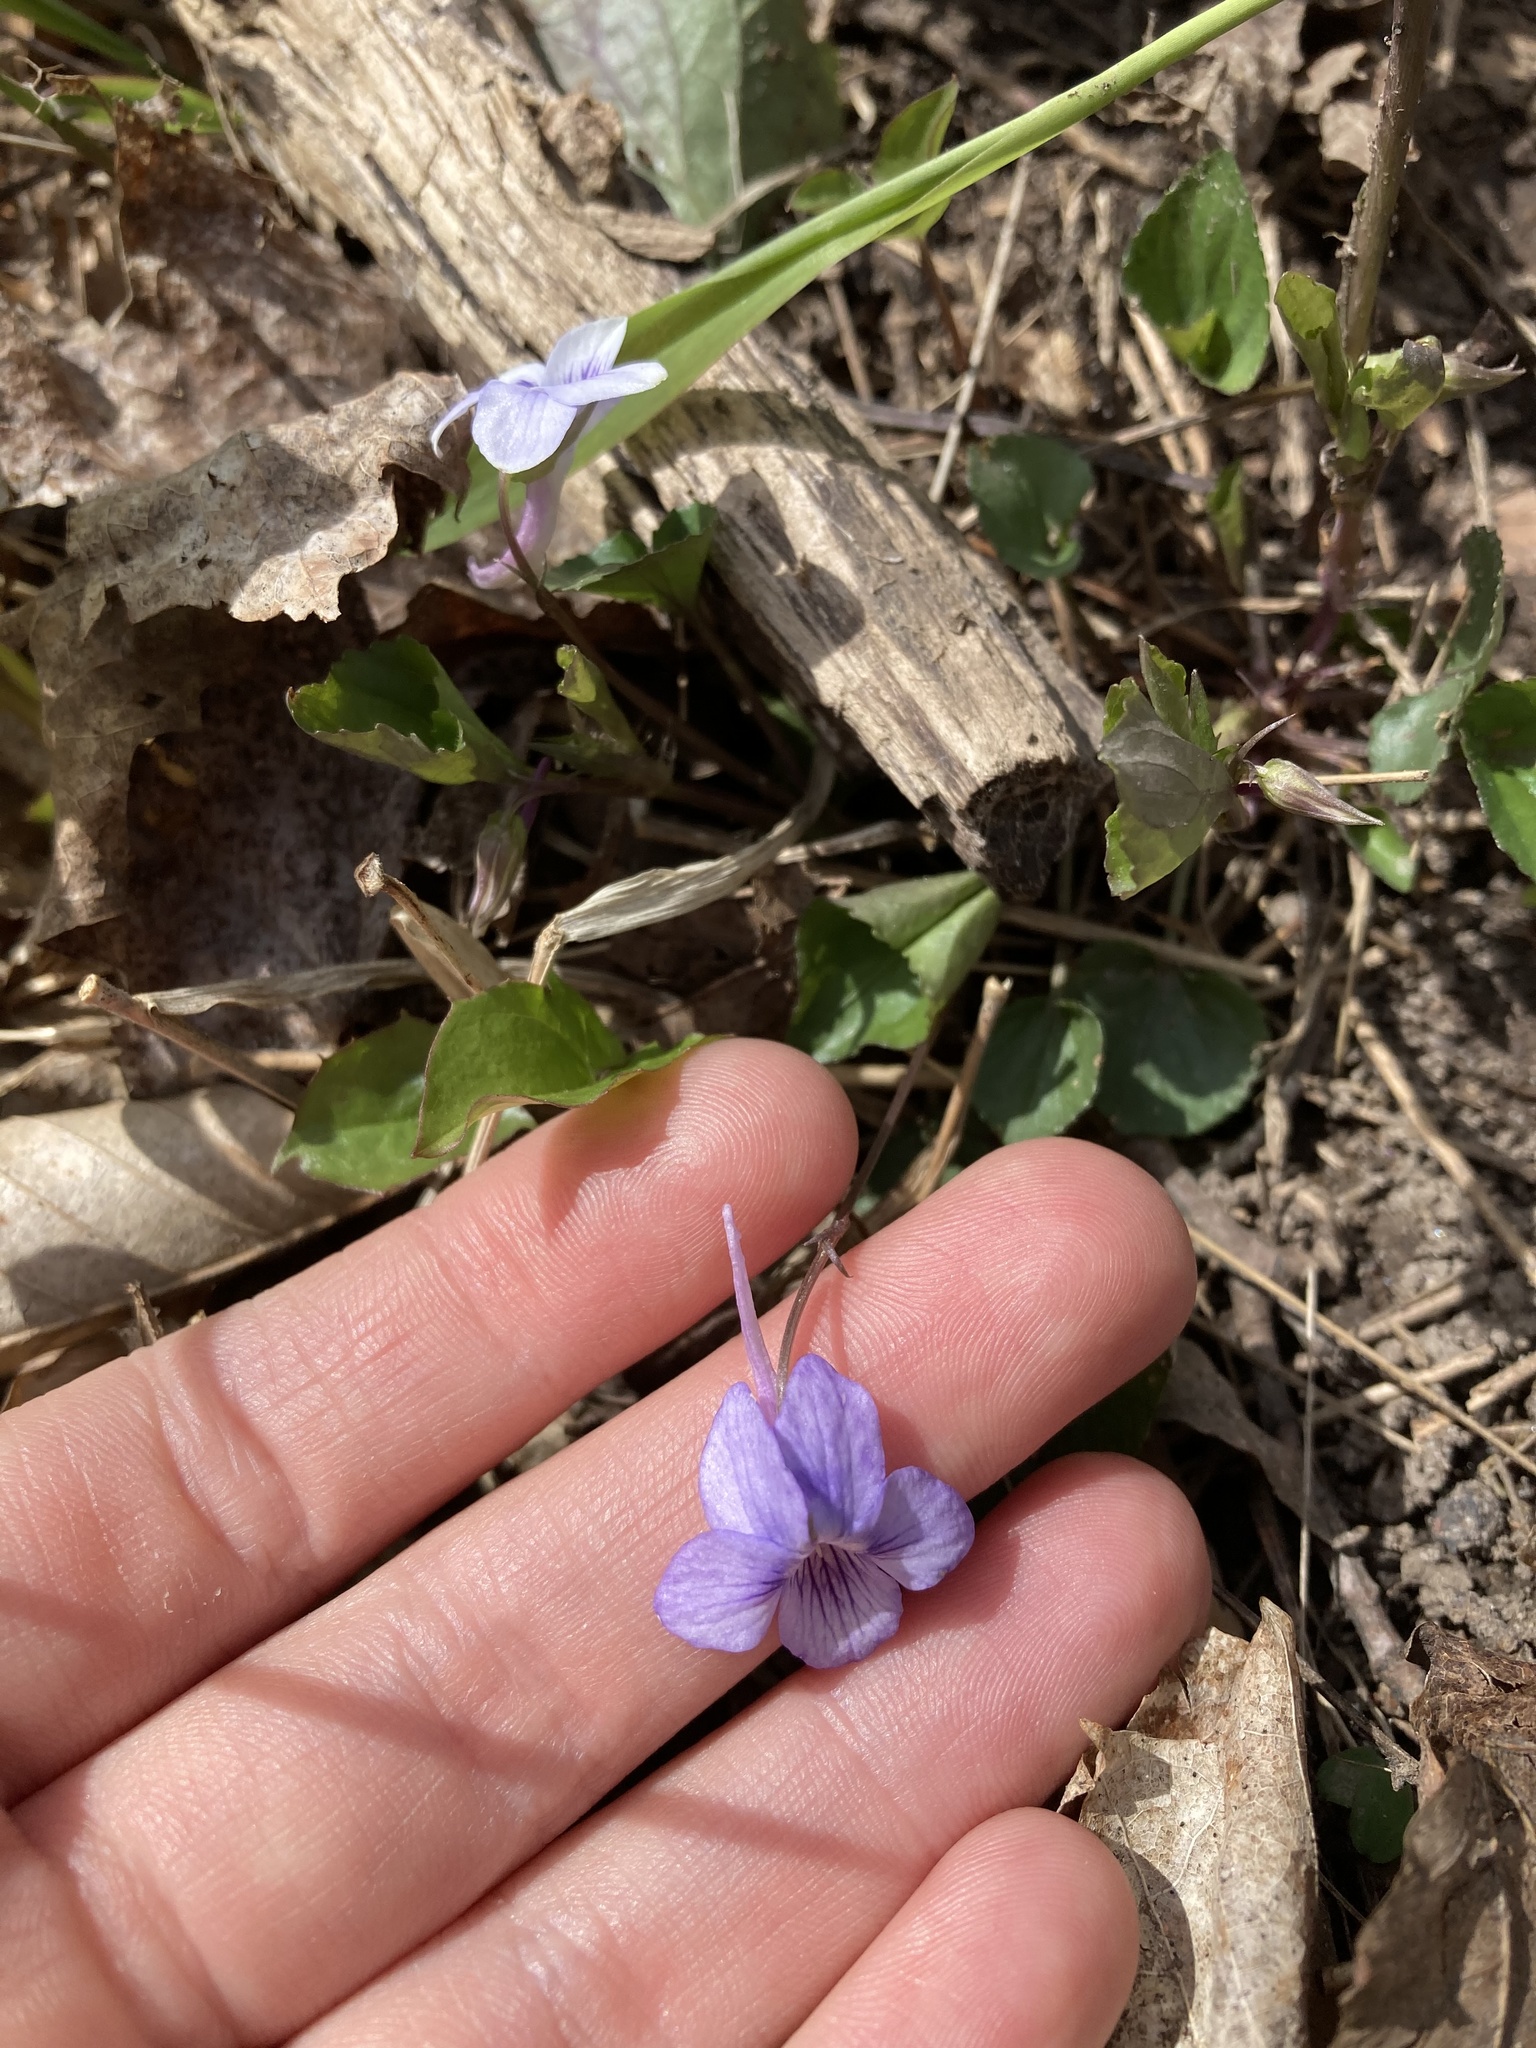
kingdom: Plantae
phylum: Tracheophyta
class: Magnoliopsida
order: Malpighiales
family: Violaceae
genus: Viola
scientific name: Viola rostrata
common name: Long-spur violet
